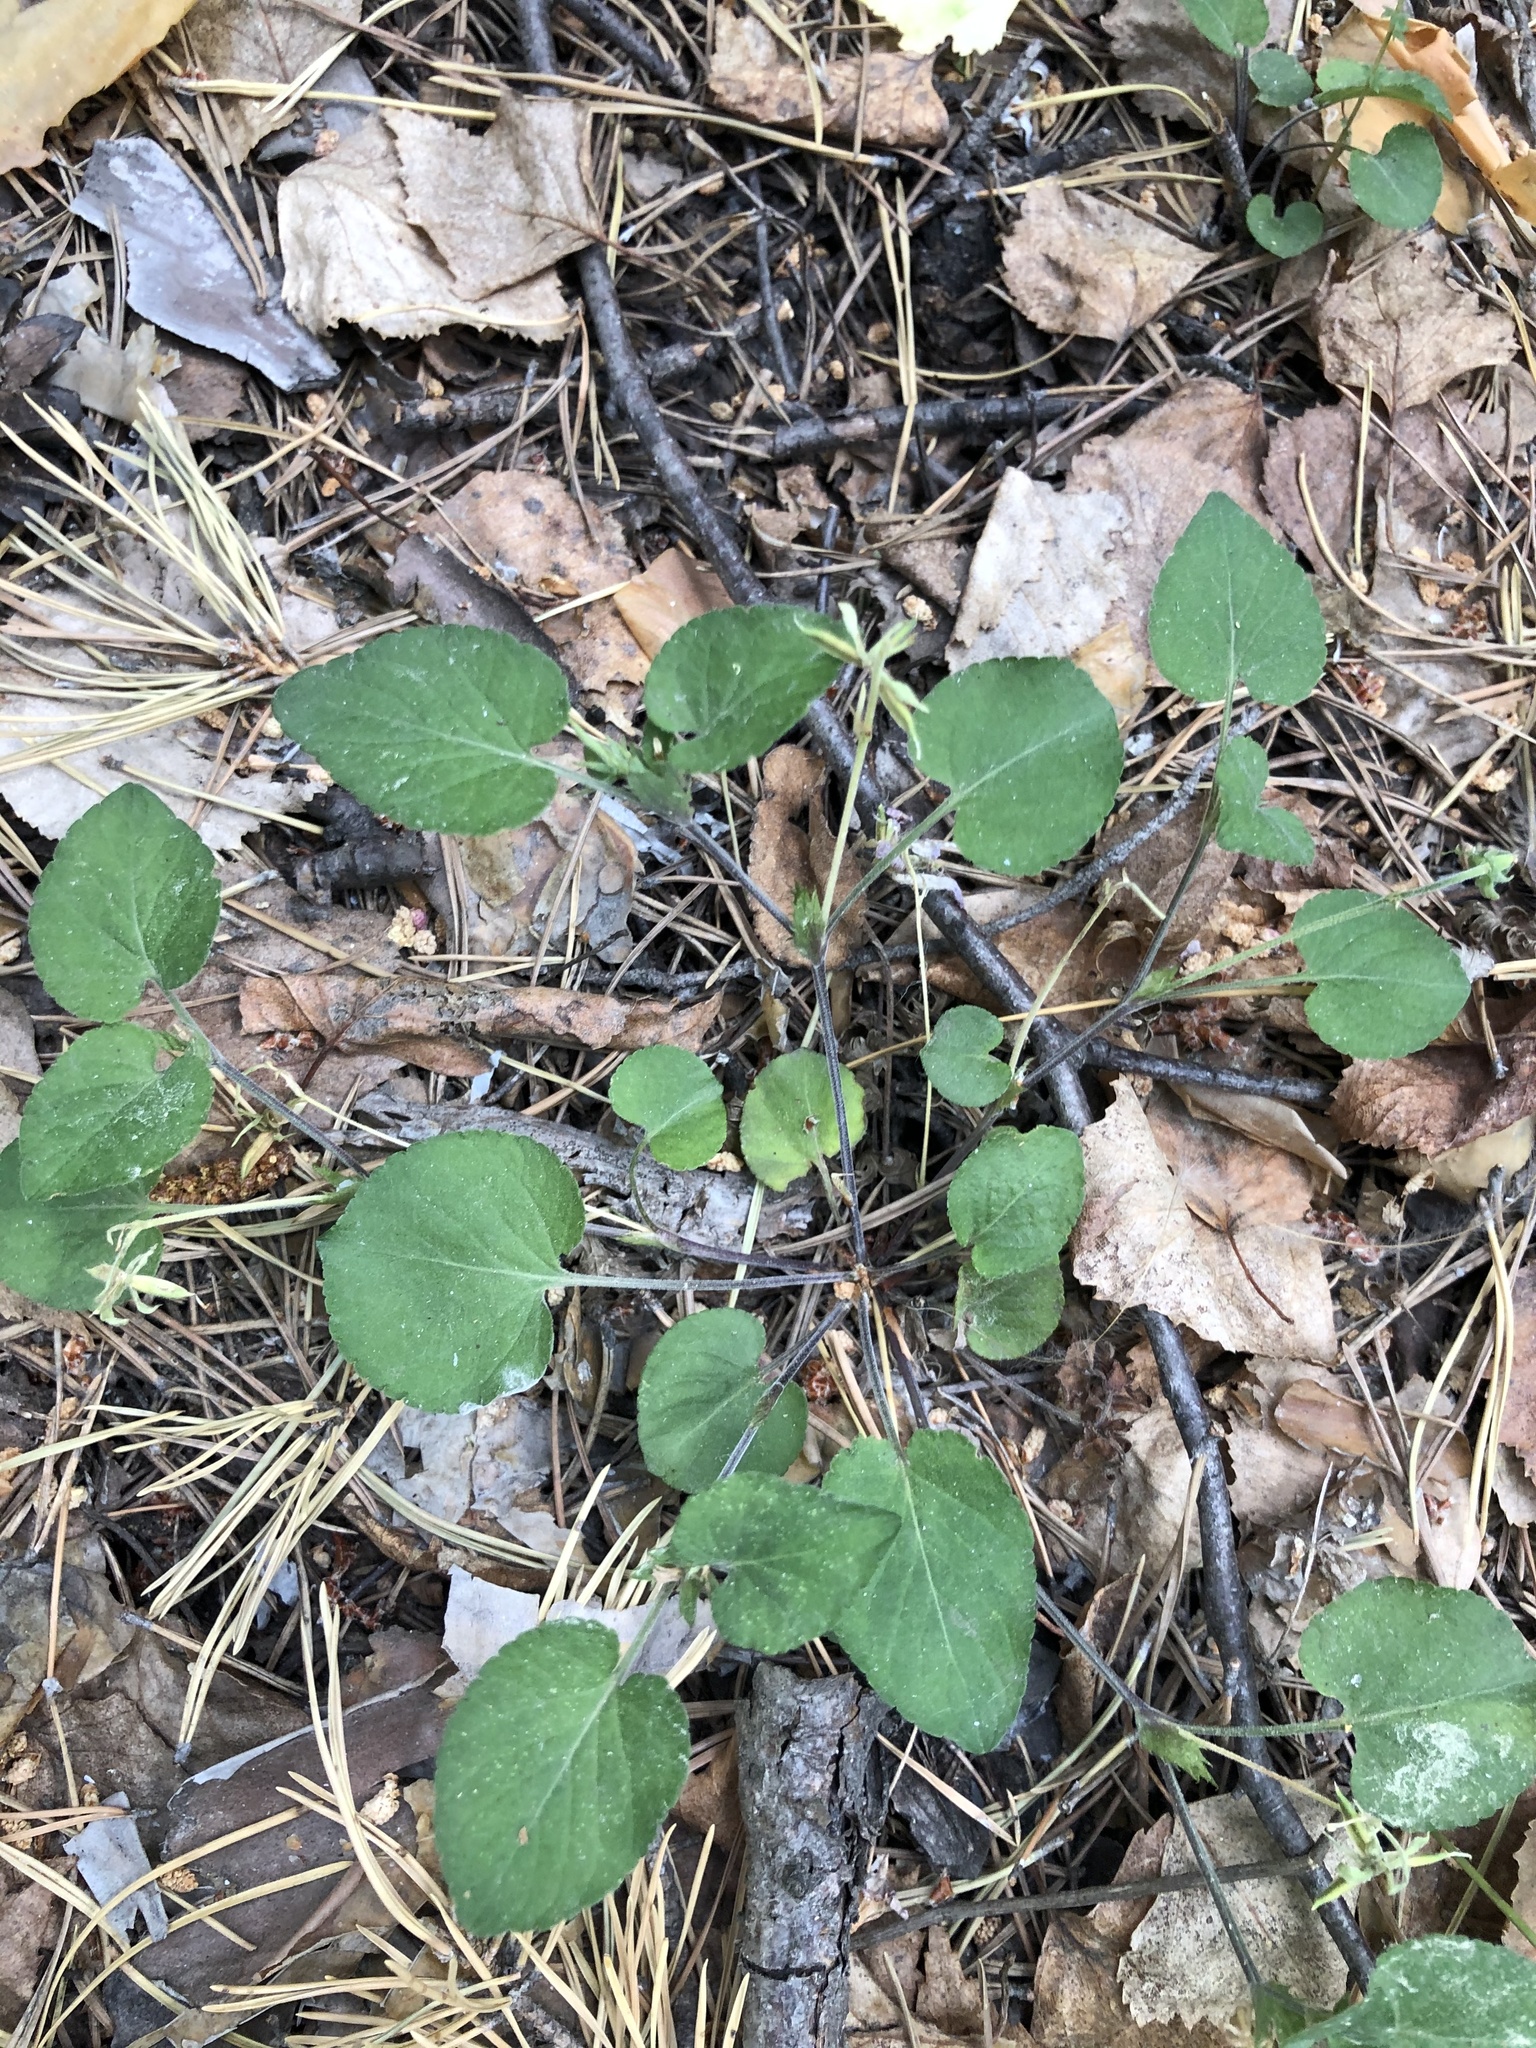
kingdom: Plantae
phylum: Tracheophyta
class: Magnoliopsida
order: Malpighiales
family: Violaceae
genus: Viola
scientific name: Viola rupestris
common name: Teesdale violet
